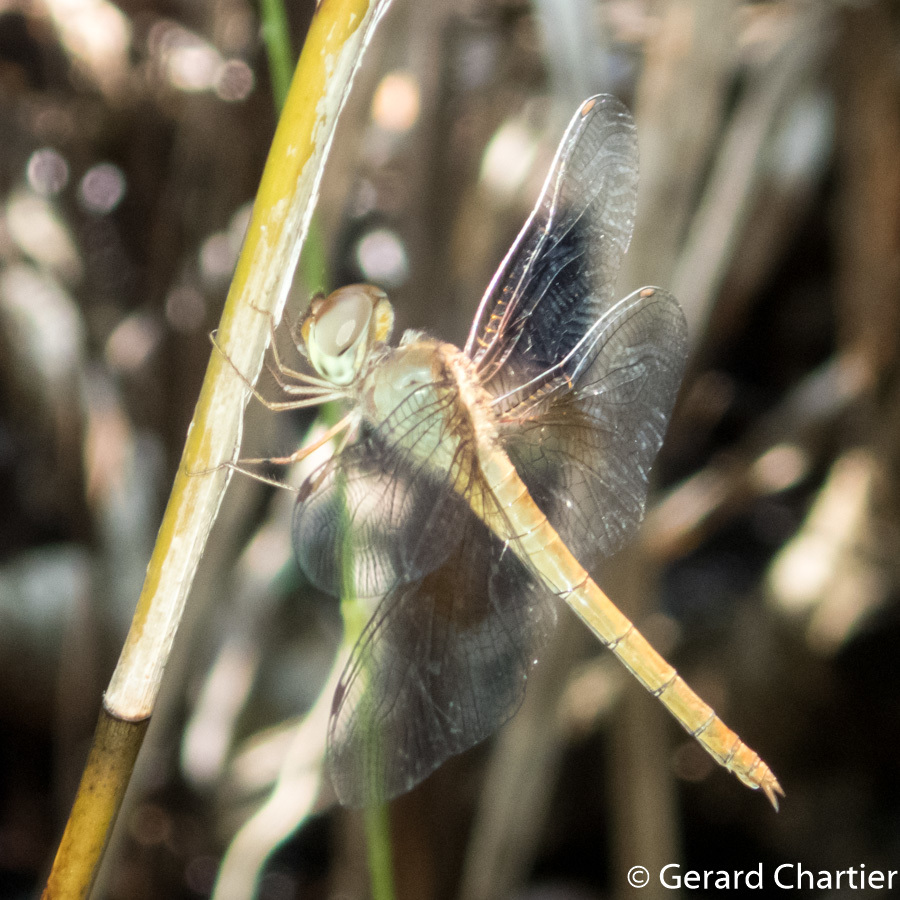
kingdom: Animalia
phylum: Arthropoda
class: Insecta
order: Odonata
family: Libellulidae
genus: Tholymis
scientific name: Tholymis tillarga
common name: Coral-tailed cloud wing
